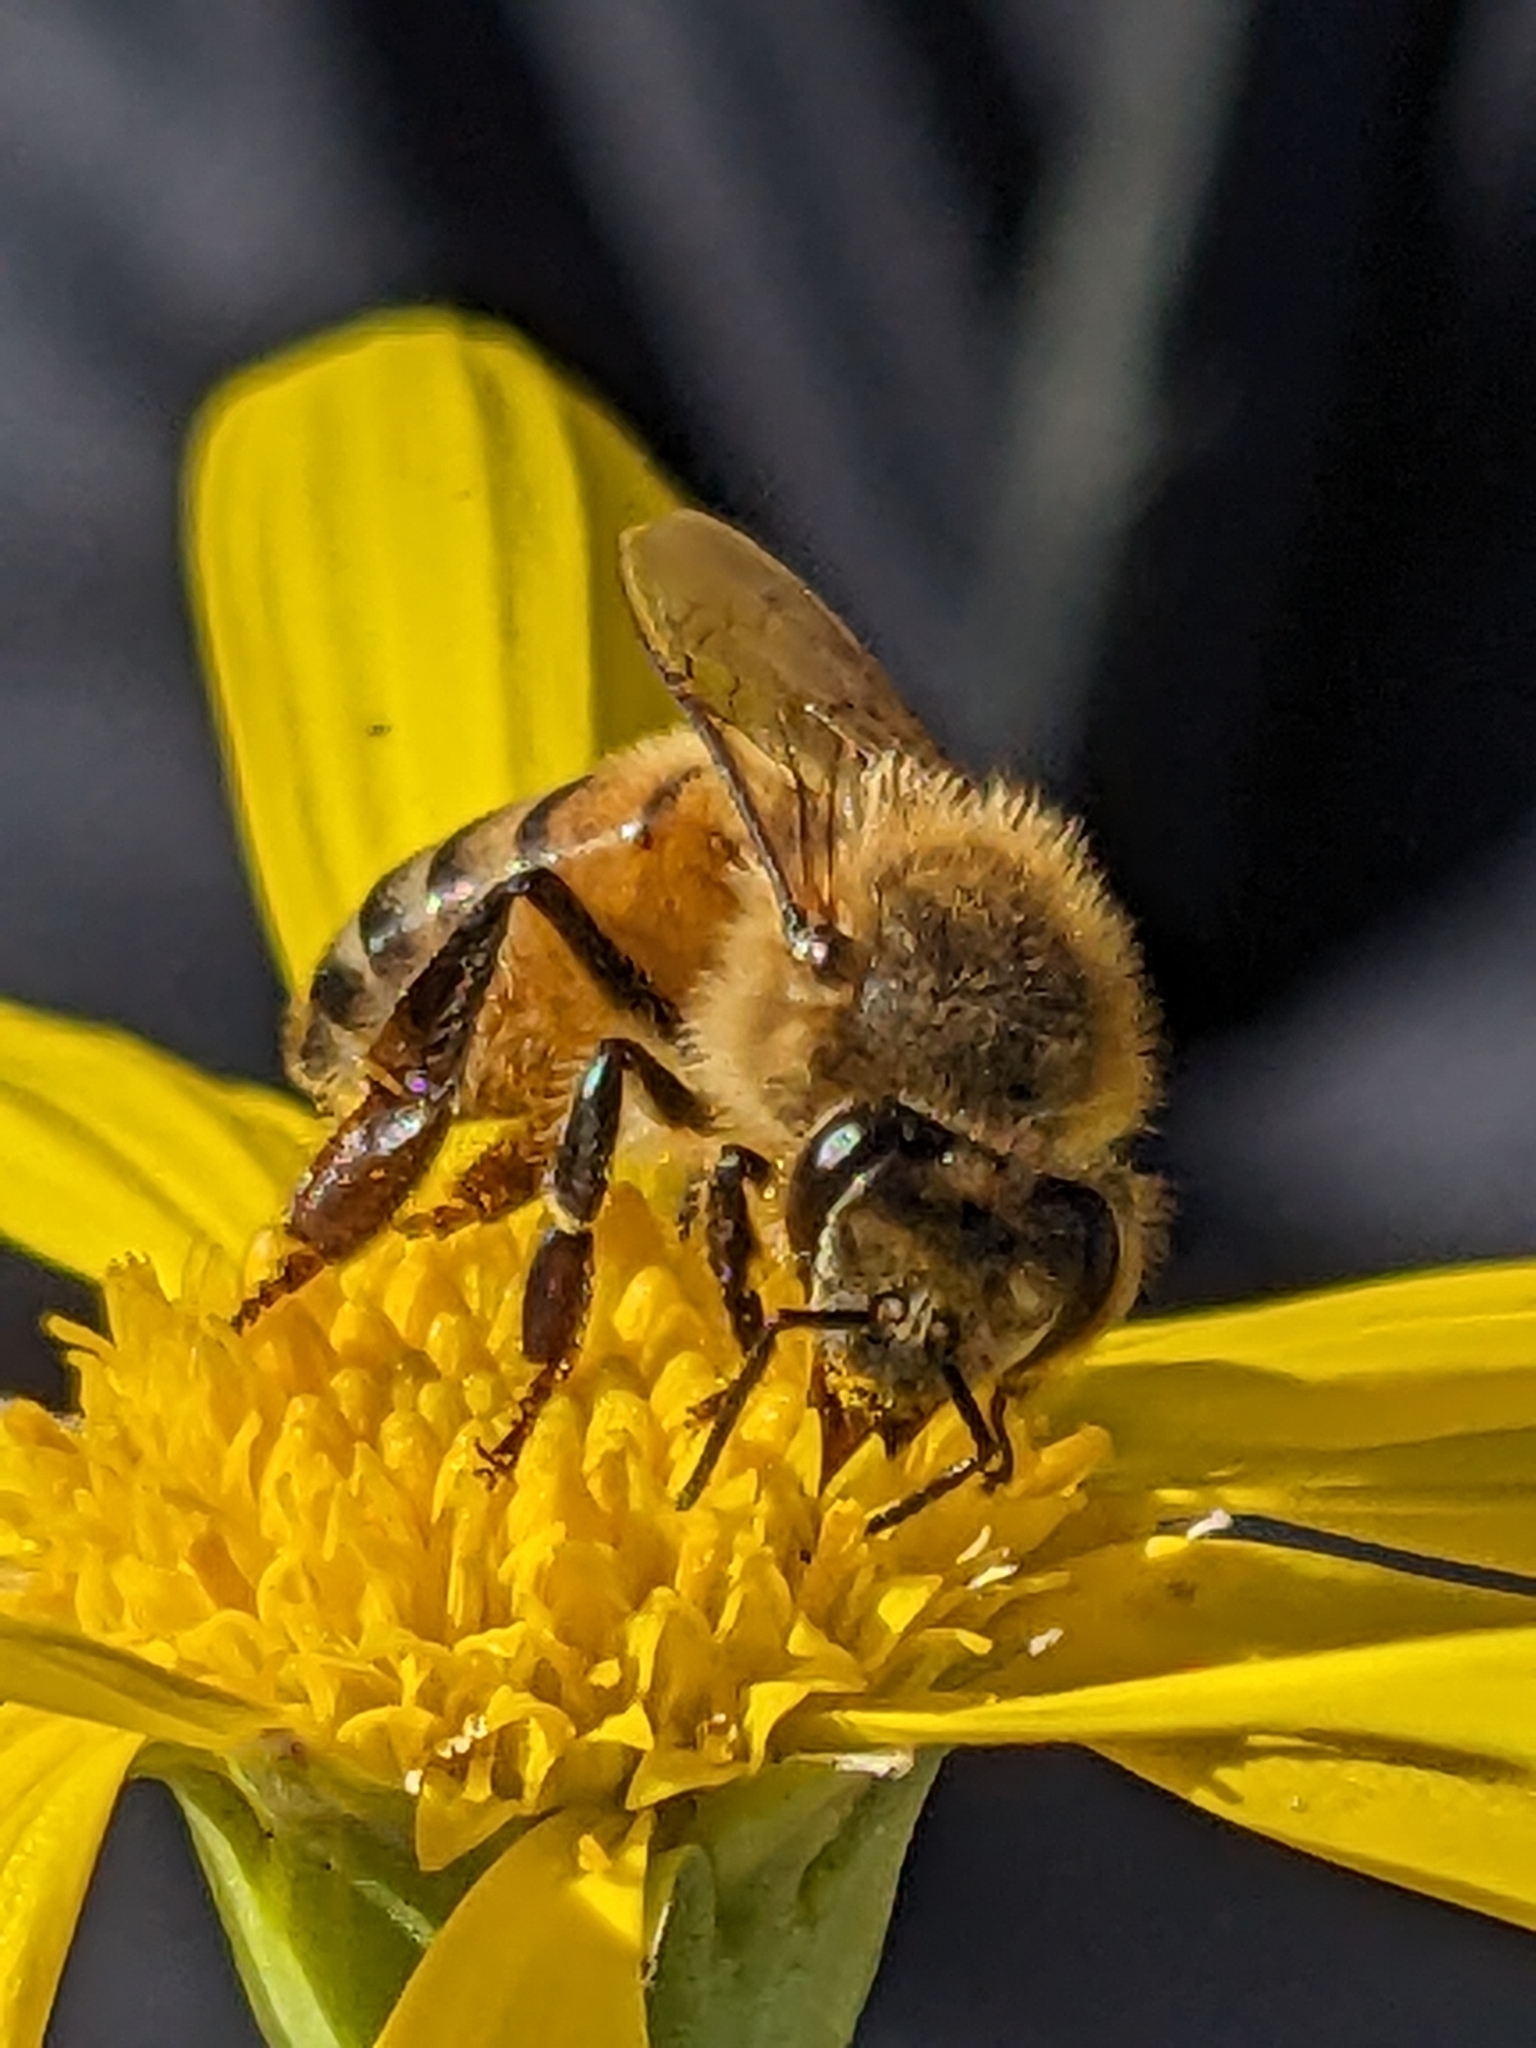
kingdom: Animalia
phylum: Arthropoda
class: Insecta
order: Hymenoptera
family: Apidae
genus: Apis
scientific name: Apis mellifera
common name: Honey bee
